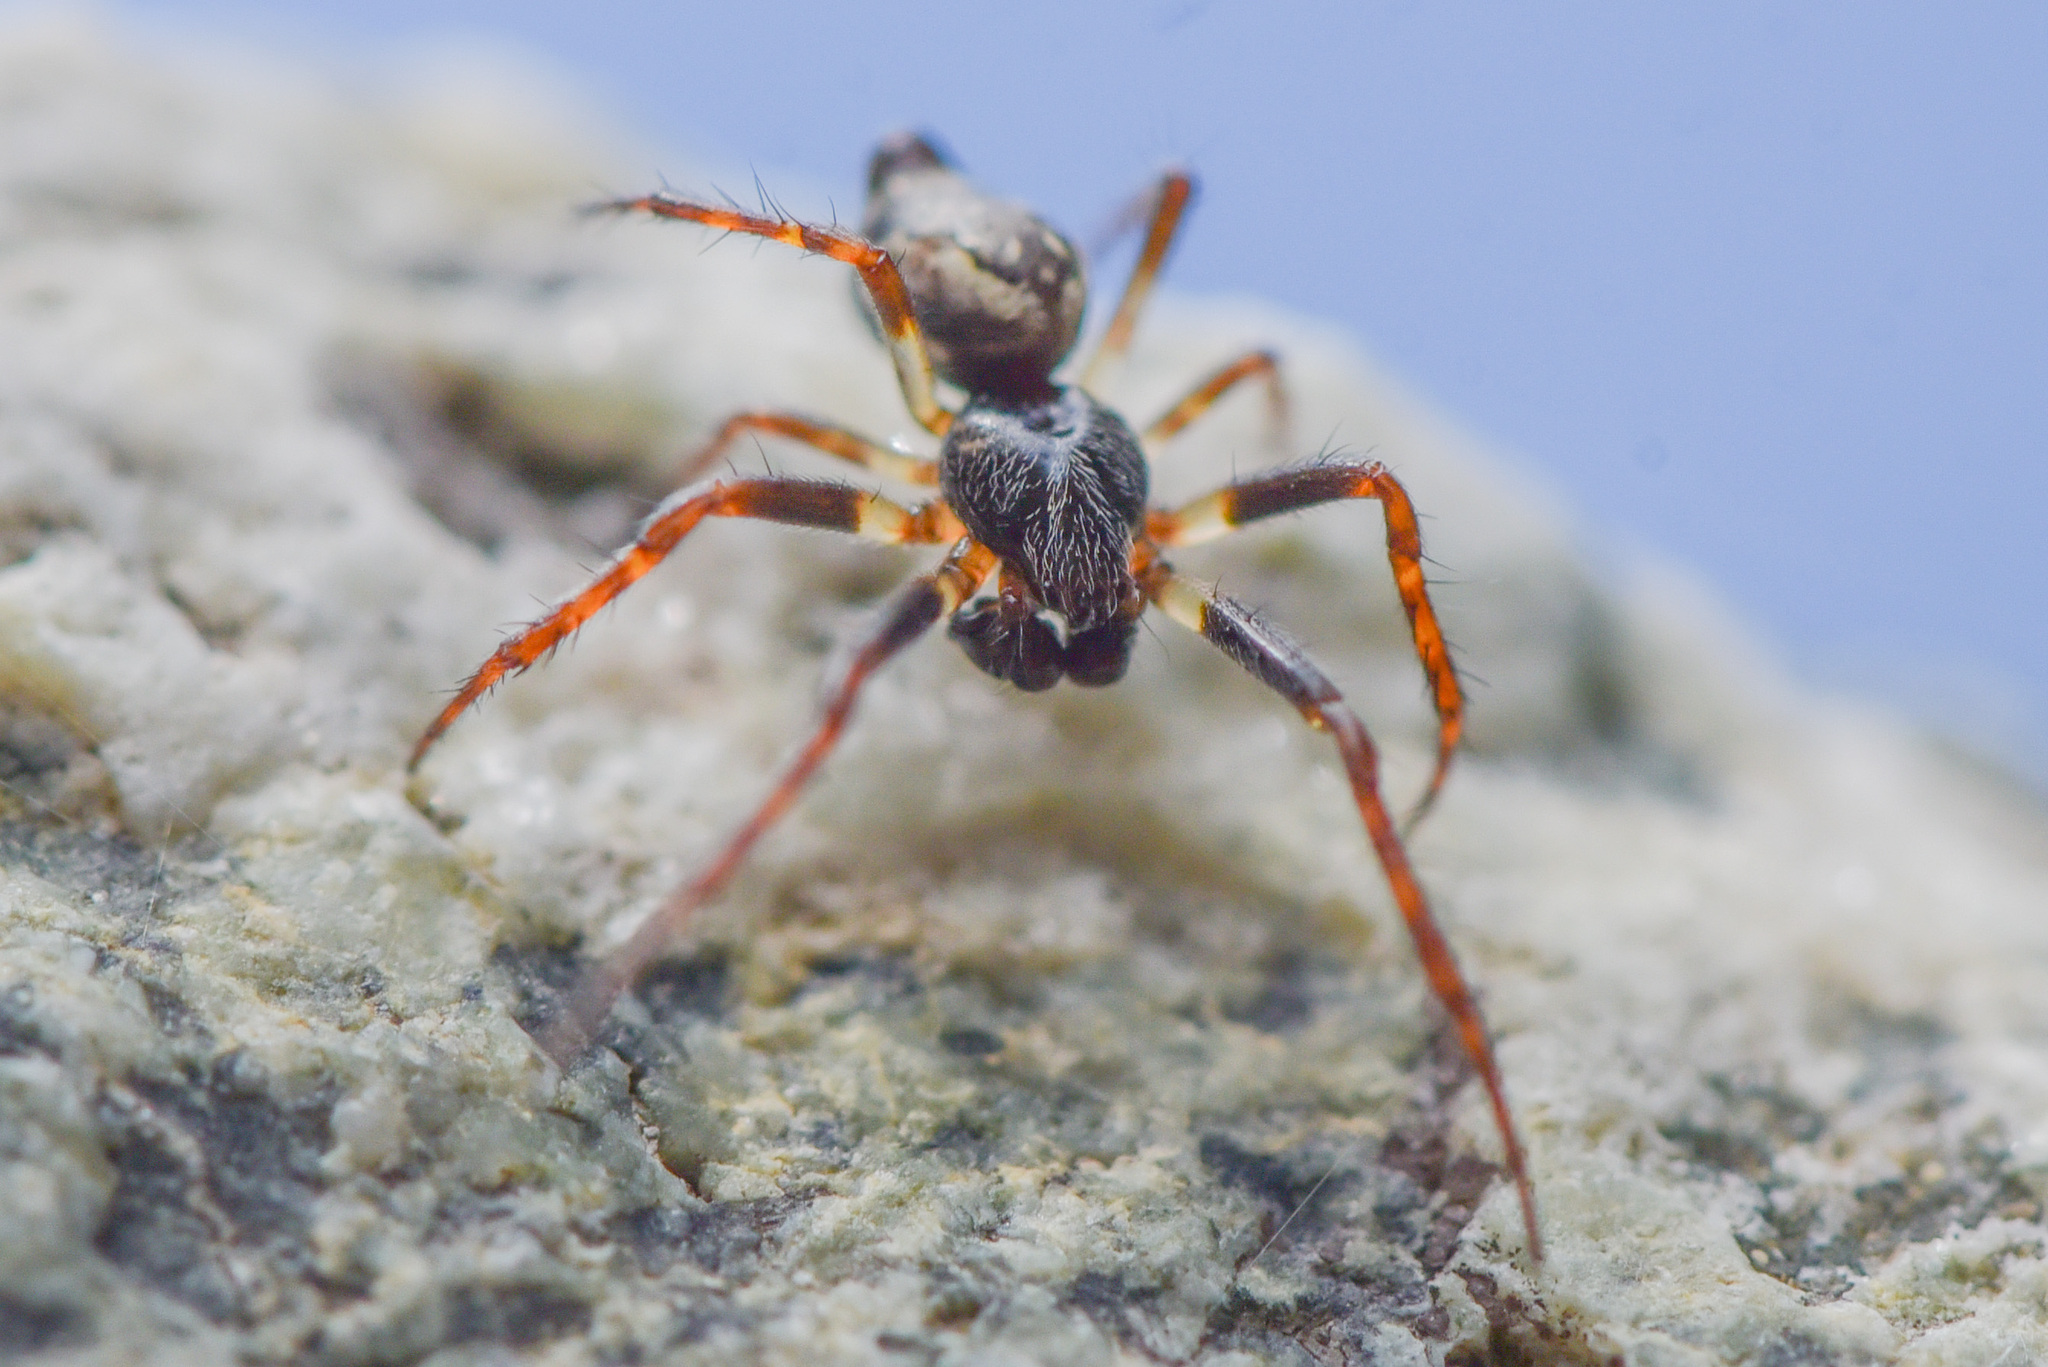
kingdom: Animalia
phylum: Arthropoda
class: Arachnida
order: Araneae
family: Araneidae
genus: Cyclosa
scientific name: Cyclosa conica
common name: Conical trashline orbweaver
